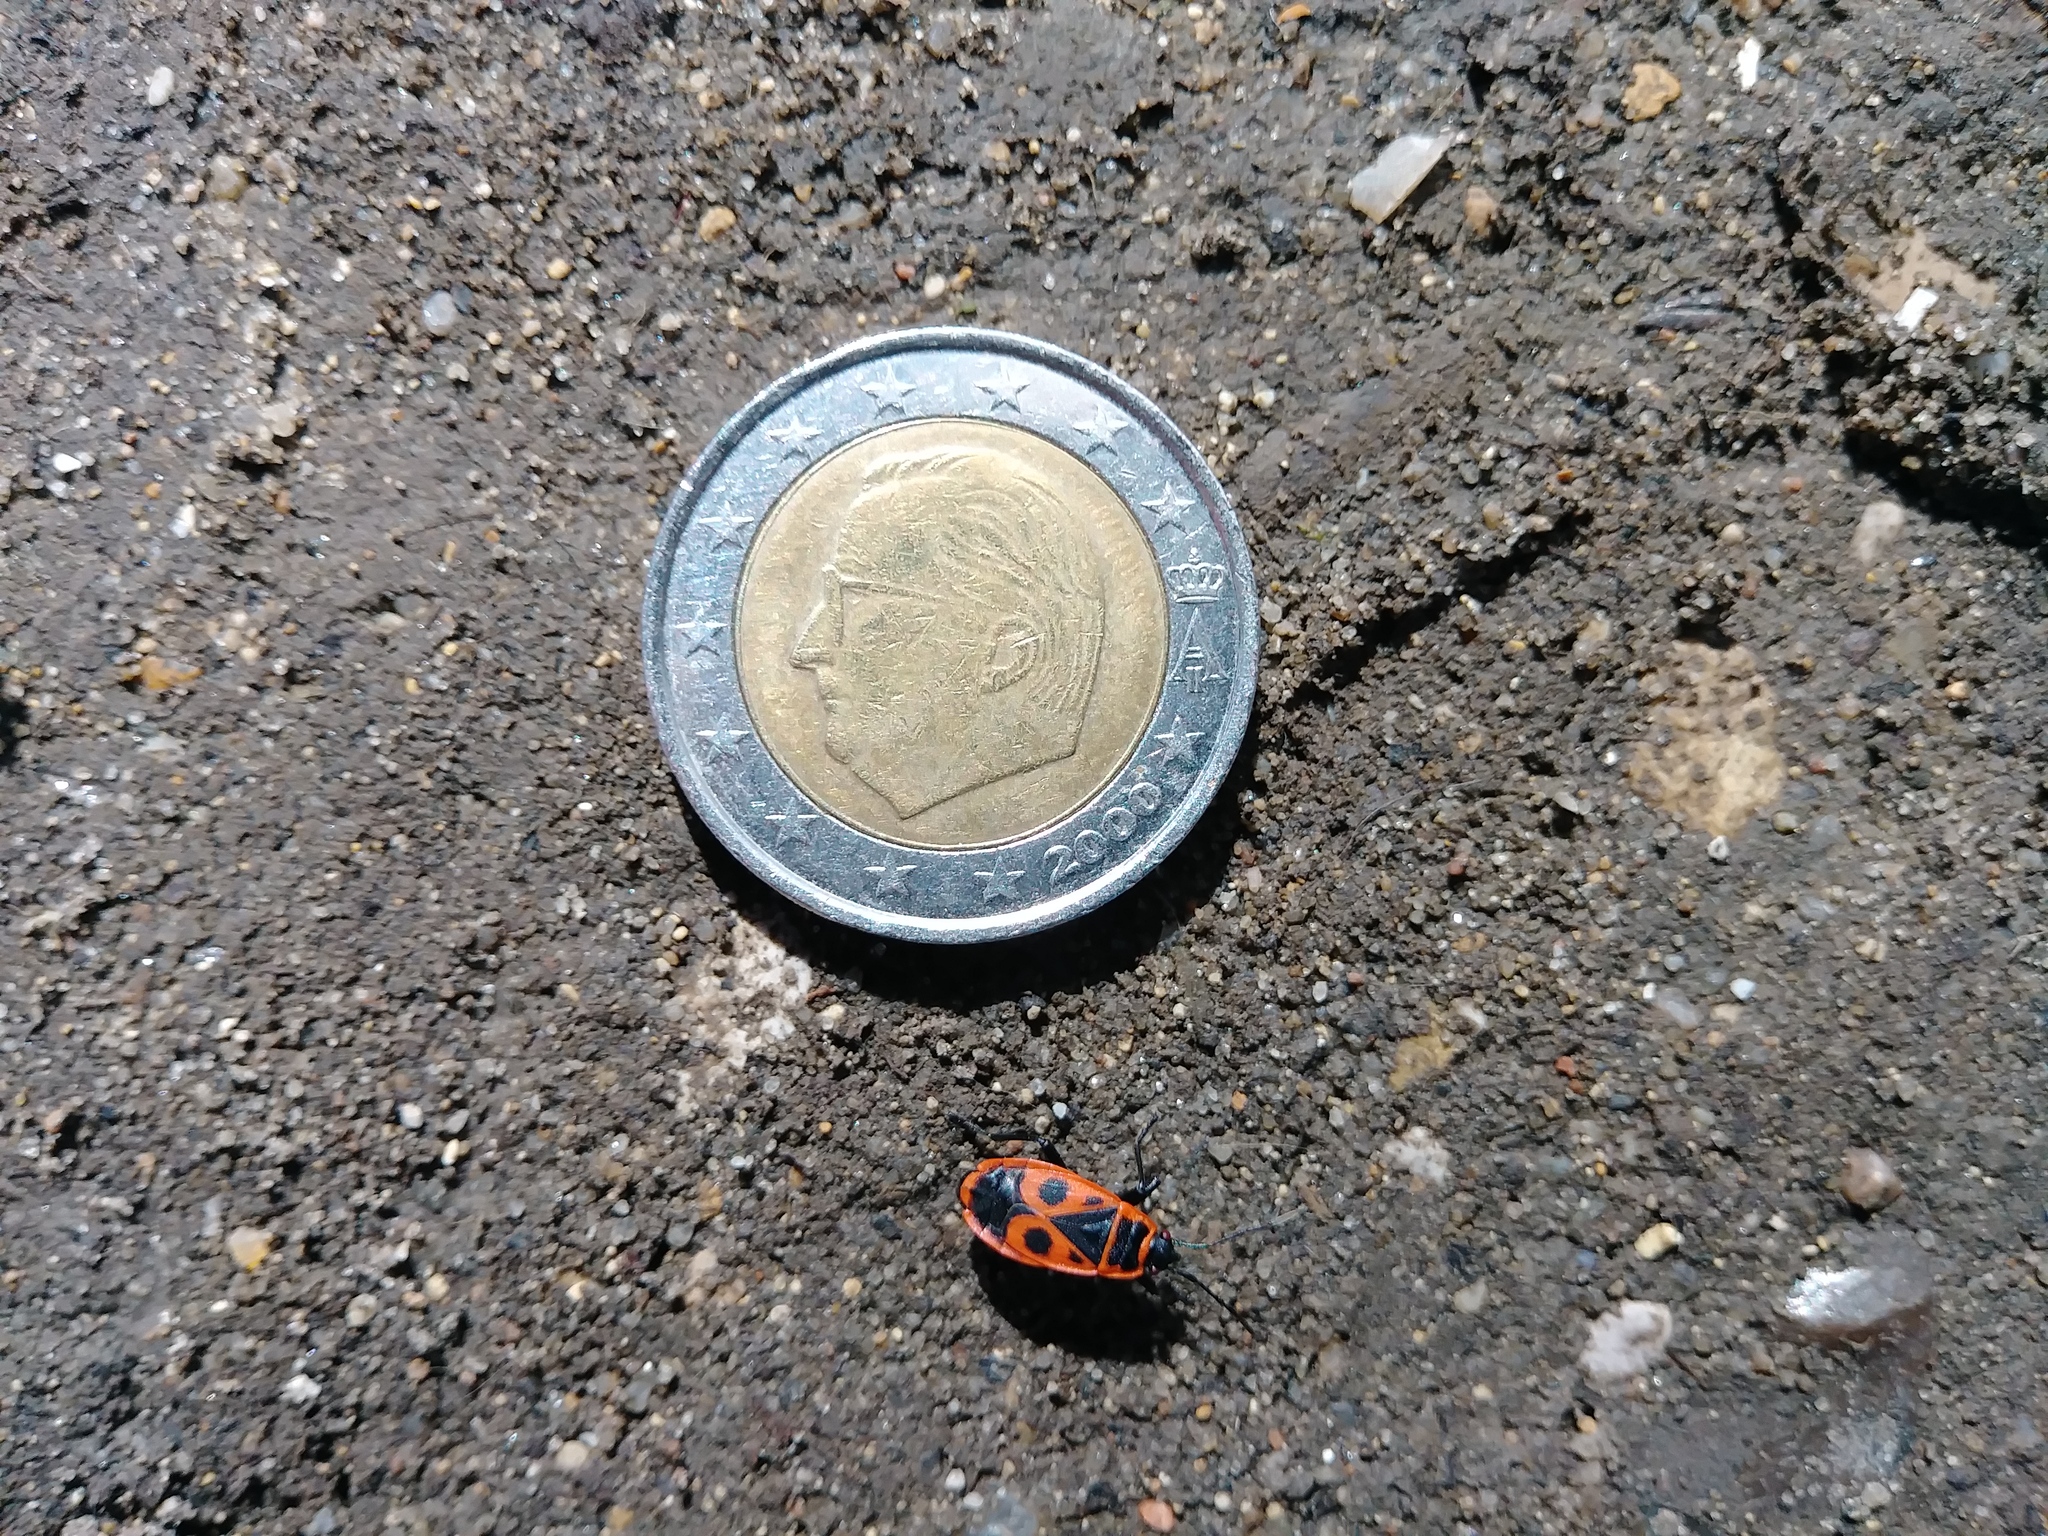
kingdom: Animalia
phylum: Arthropoda
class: Insecta
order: Hemiptera
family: Pyrrhocoridae
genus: Pyrrhocoris
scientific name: Pyrrhocoris apterus
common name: Firebug
